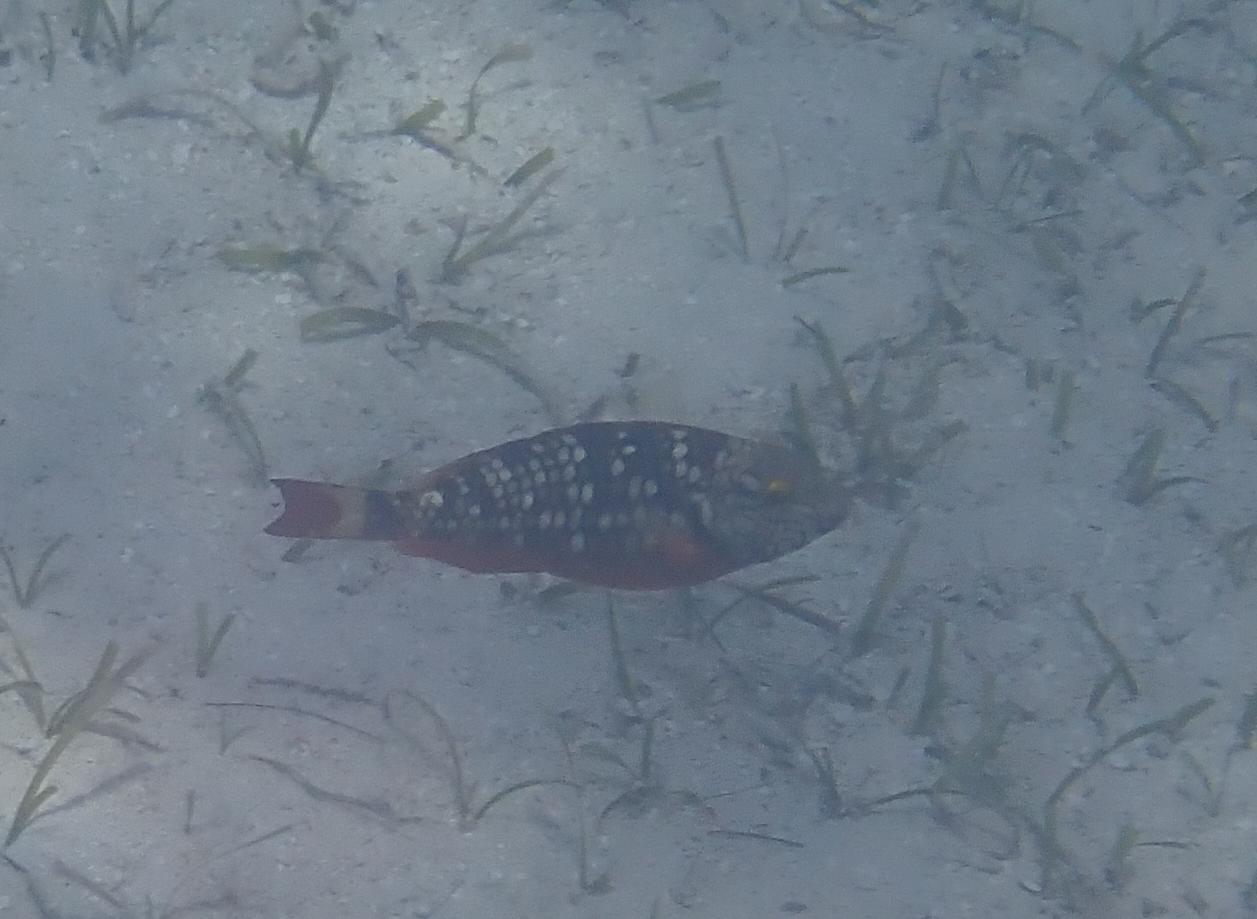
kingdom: Animalia
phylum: Chordata
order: Perciformes
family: Scaridae
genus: Sparisoma
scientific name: Sparisoma viride
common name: Stoplight parrotfish
